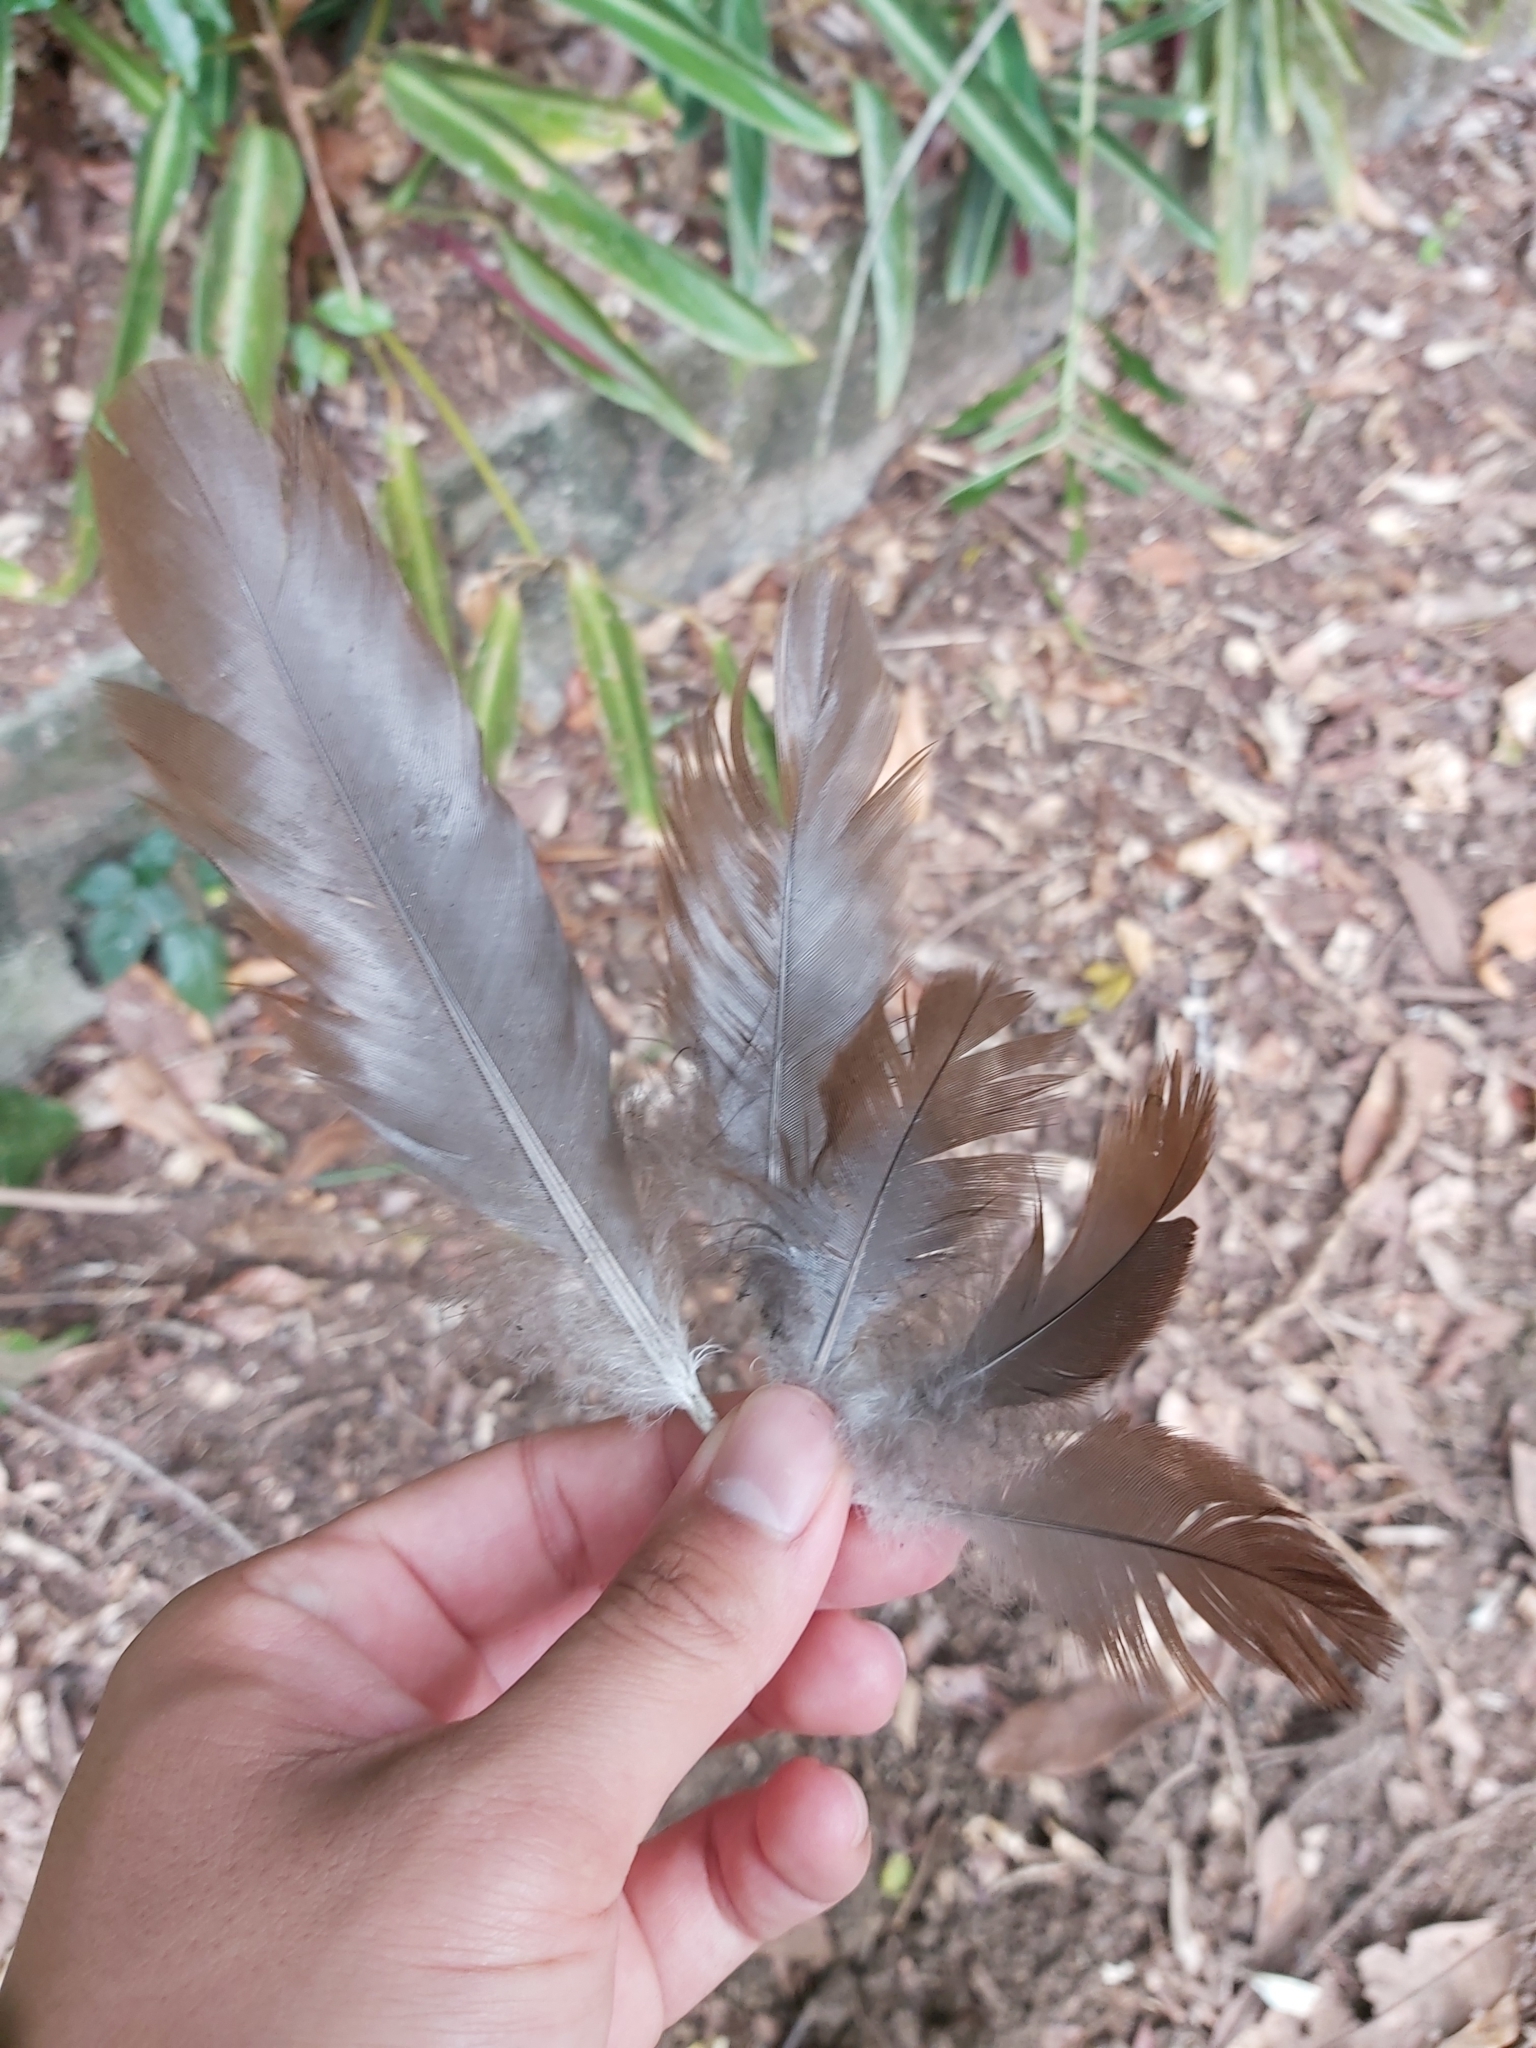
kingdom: Animalia
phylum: Chordata
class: Aves
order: Galliformes
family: Megapodiidae
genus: Megapodius
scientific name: Megapodius reinwardt
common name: Orange-footed scrubfowl
